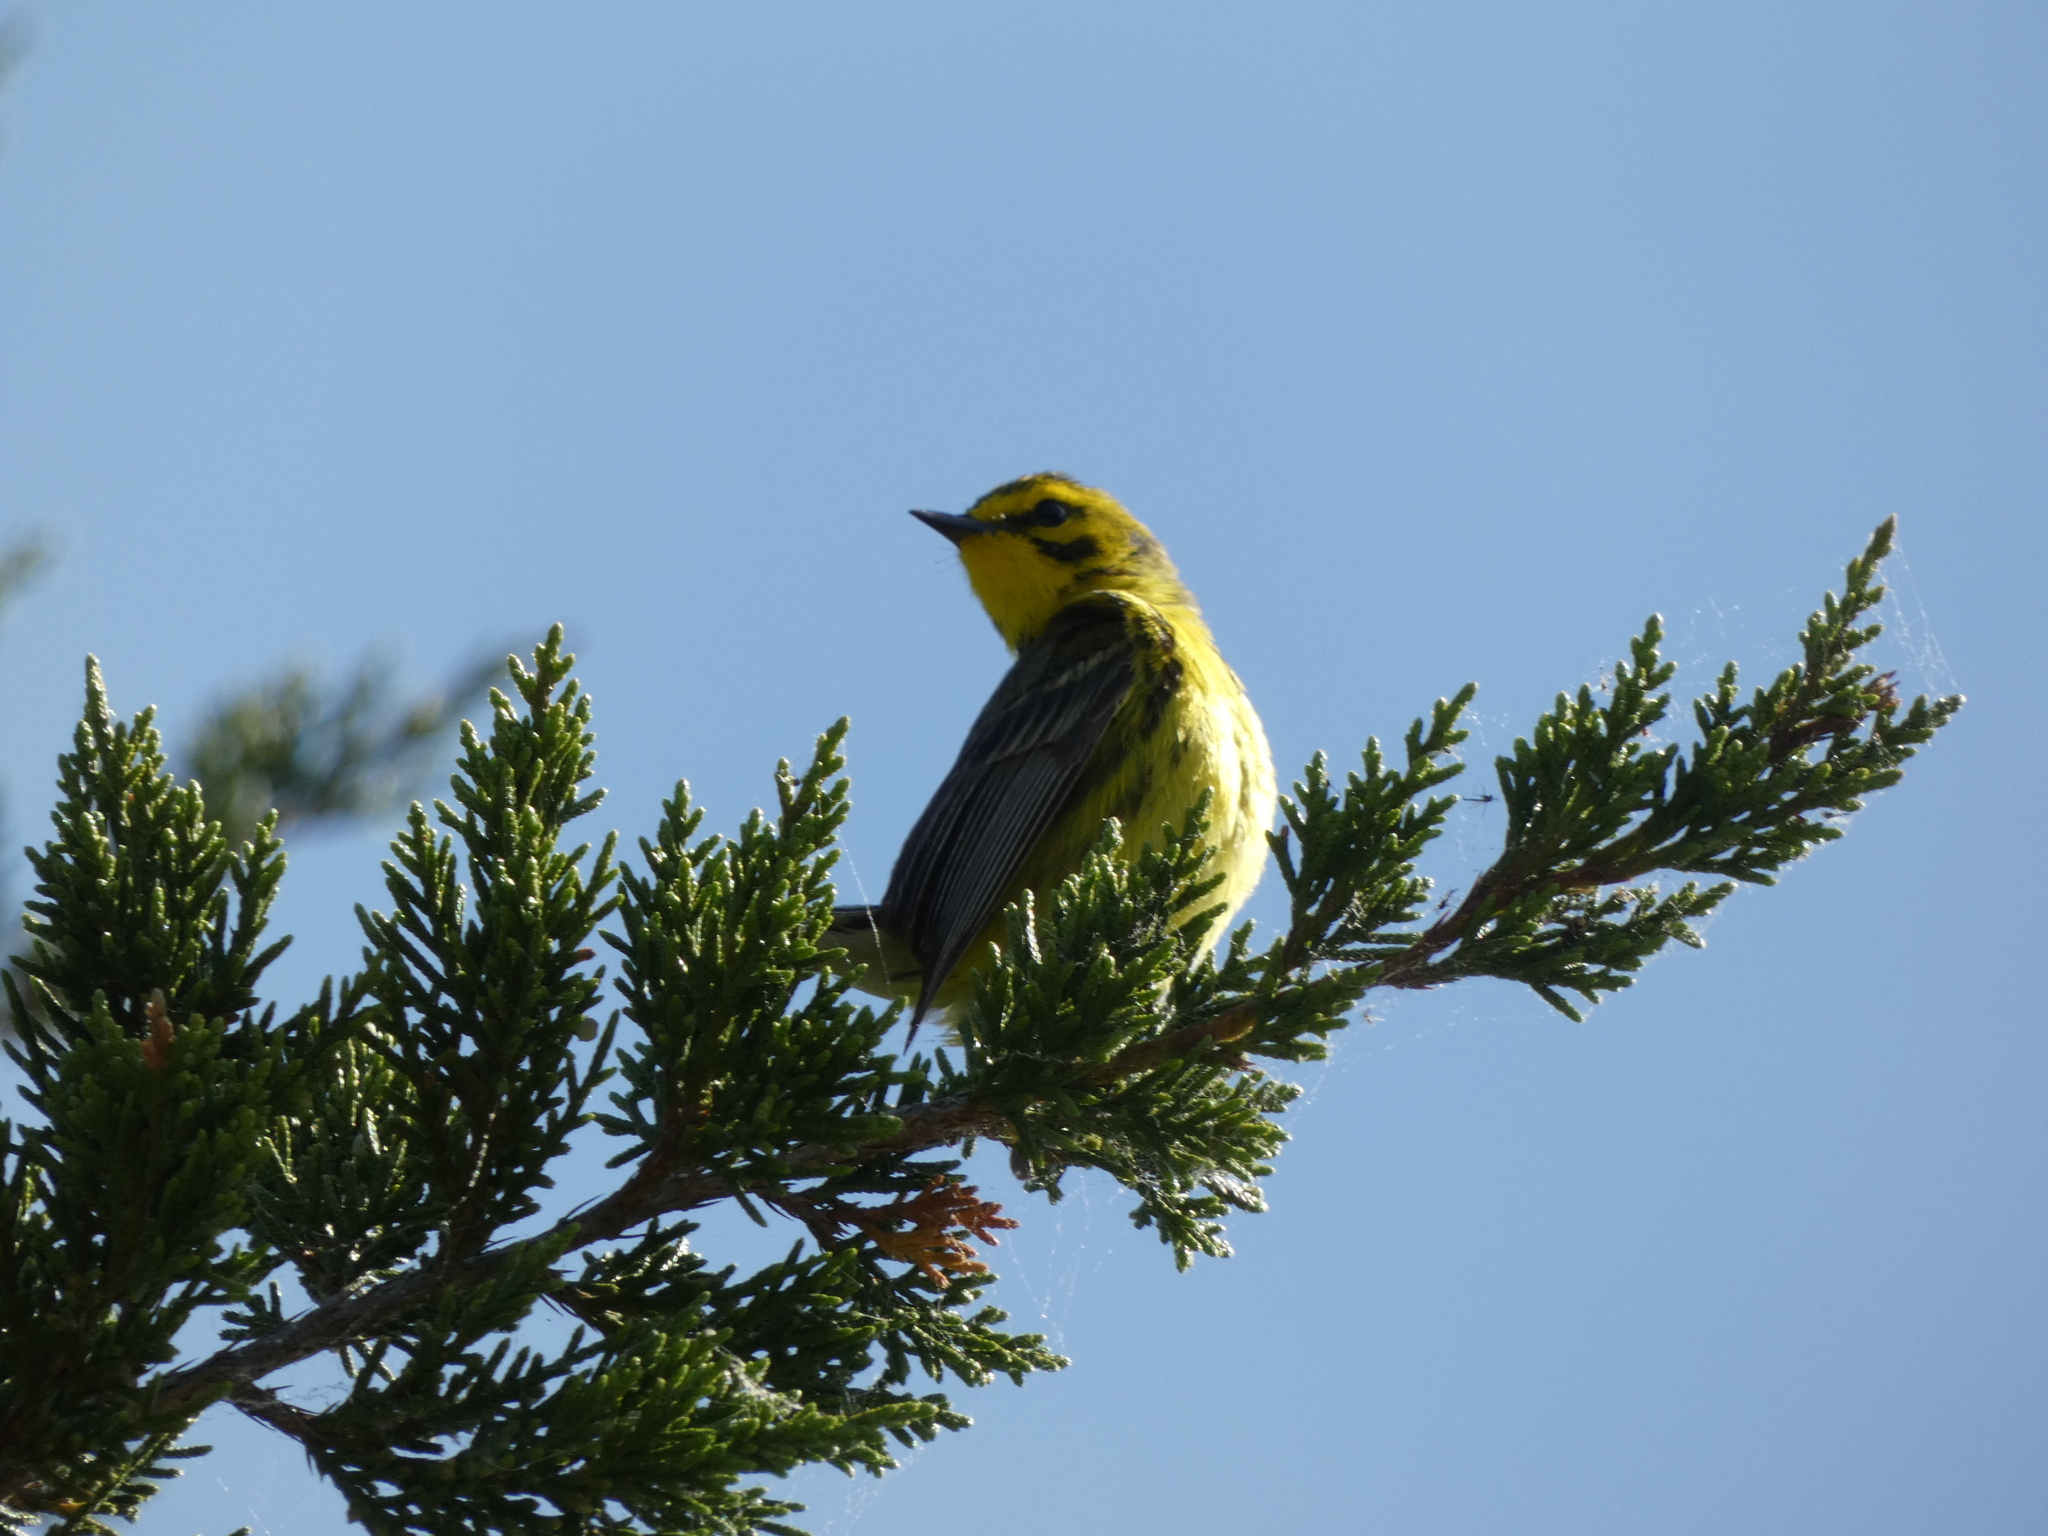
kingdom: Animalia
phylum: Chordata
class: Aves
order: Passeriformes
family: Parulidae
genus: Setophaga
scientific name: Setophaga discolor
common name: Prairie warbler
